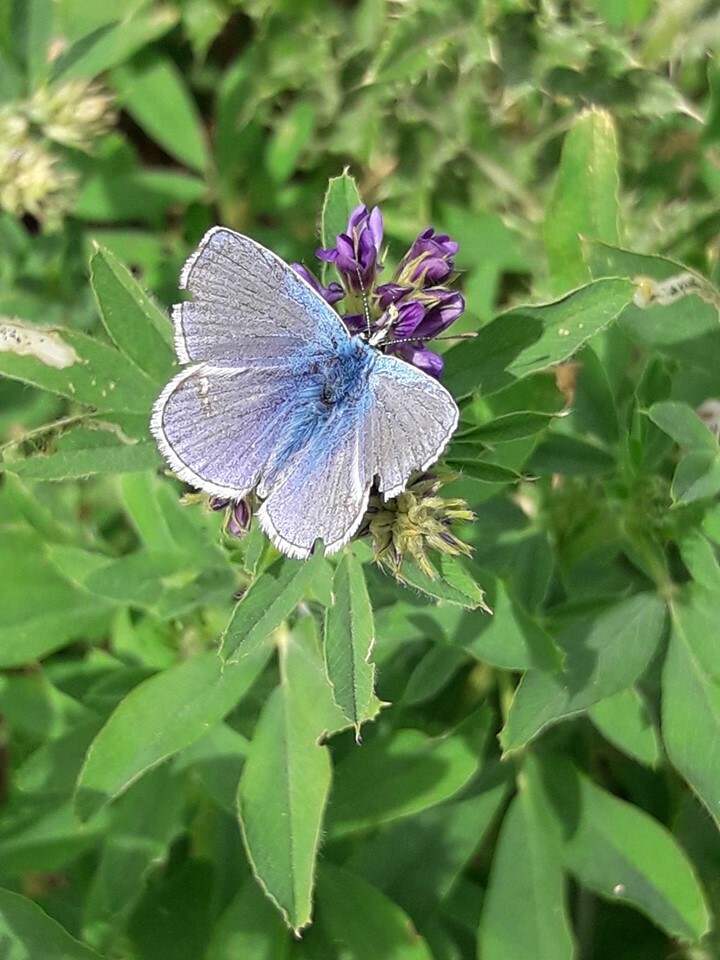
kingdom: Animalia
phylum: Arthropoda
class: Insecta
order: Lepidoptera
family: Lycaenidae
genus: Polyommatus
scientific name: Polyommatus icarus
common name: Common blue
